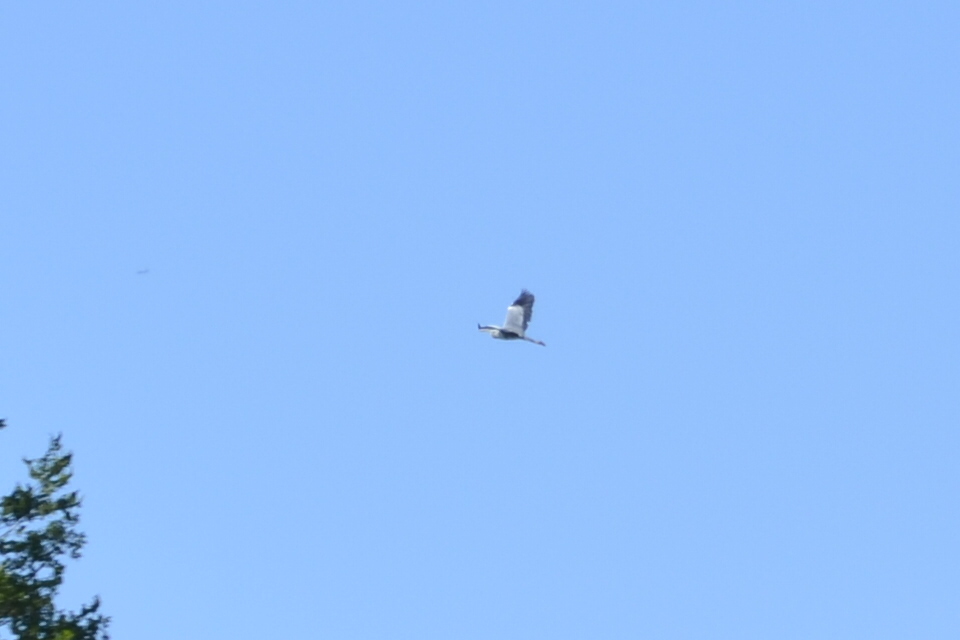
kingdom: Animalia
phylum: Chordata
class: Aves
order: Pelecaniformes
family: Ardeidae
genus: Ardea
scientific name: Ardea cinerea
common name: Grey heron
